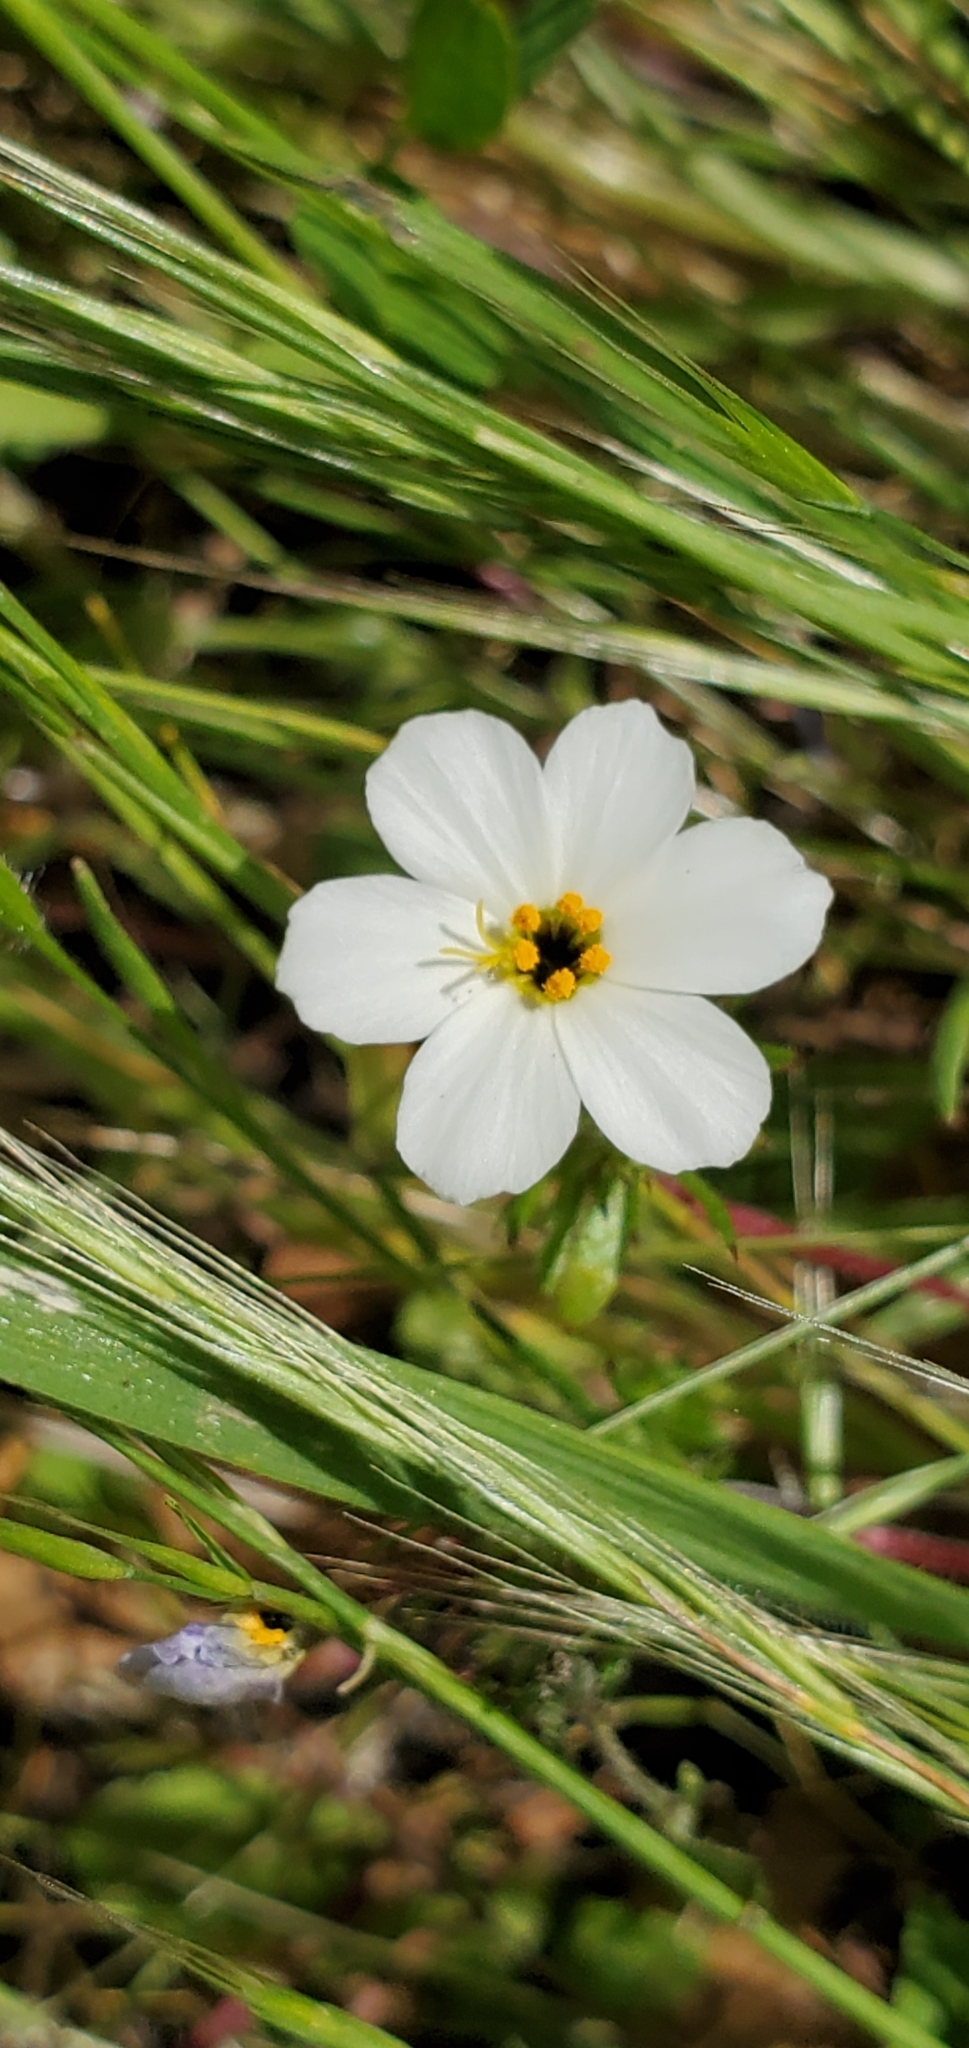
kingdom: Plantae
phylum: Tracheophyta
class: Magnoliopsida
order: Ericales
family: Polemoniaceae
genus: Leptosiphon
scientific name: Leptosiphon androsaceus
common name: False babystars
